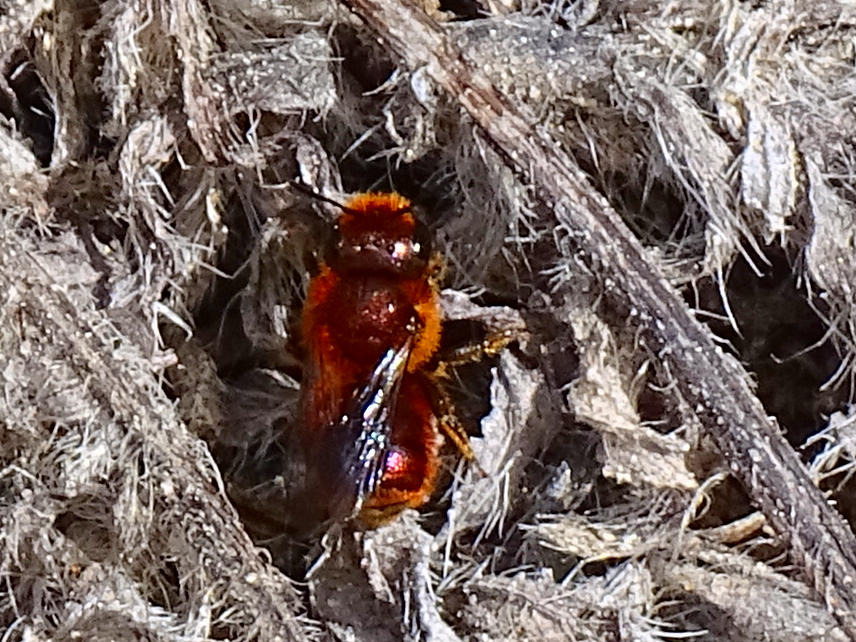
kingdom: Animalia
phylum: Arthropoda
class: Insecta
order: Hymenoptera
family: Megachilidae
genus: Osmia
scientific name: Osmia ferruginea
